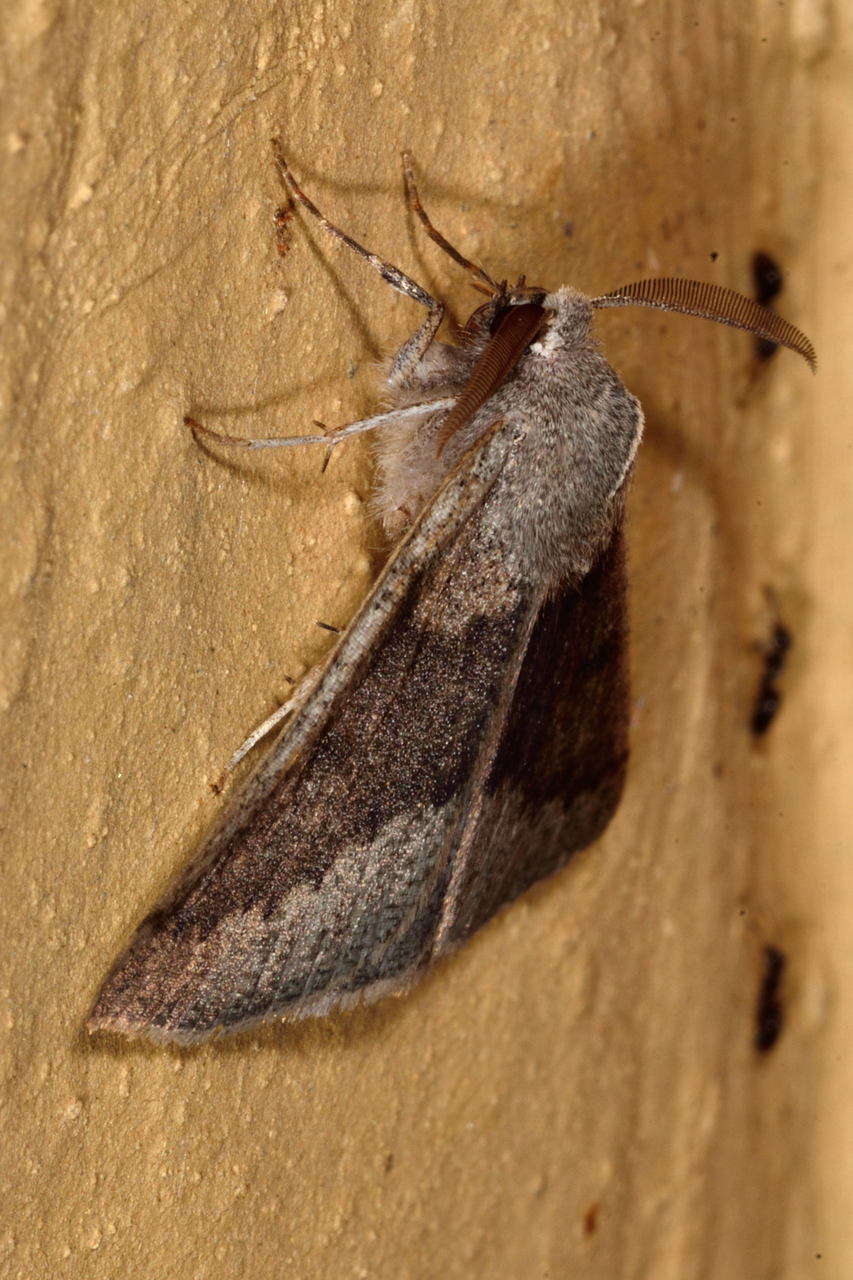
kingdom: Animalia
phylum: Arthropoda
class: Insecta
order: Lepidoptera
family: Geometridae
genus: Androchela
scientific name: Androchela milvaria
